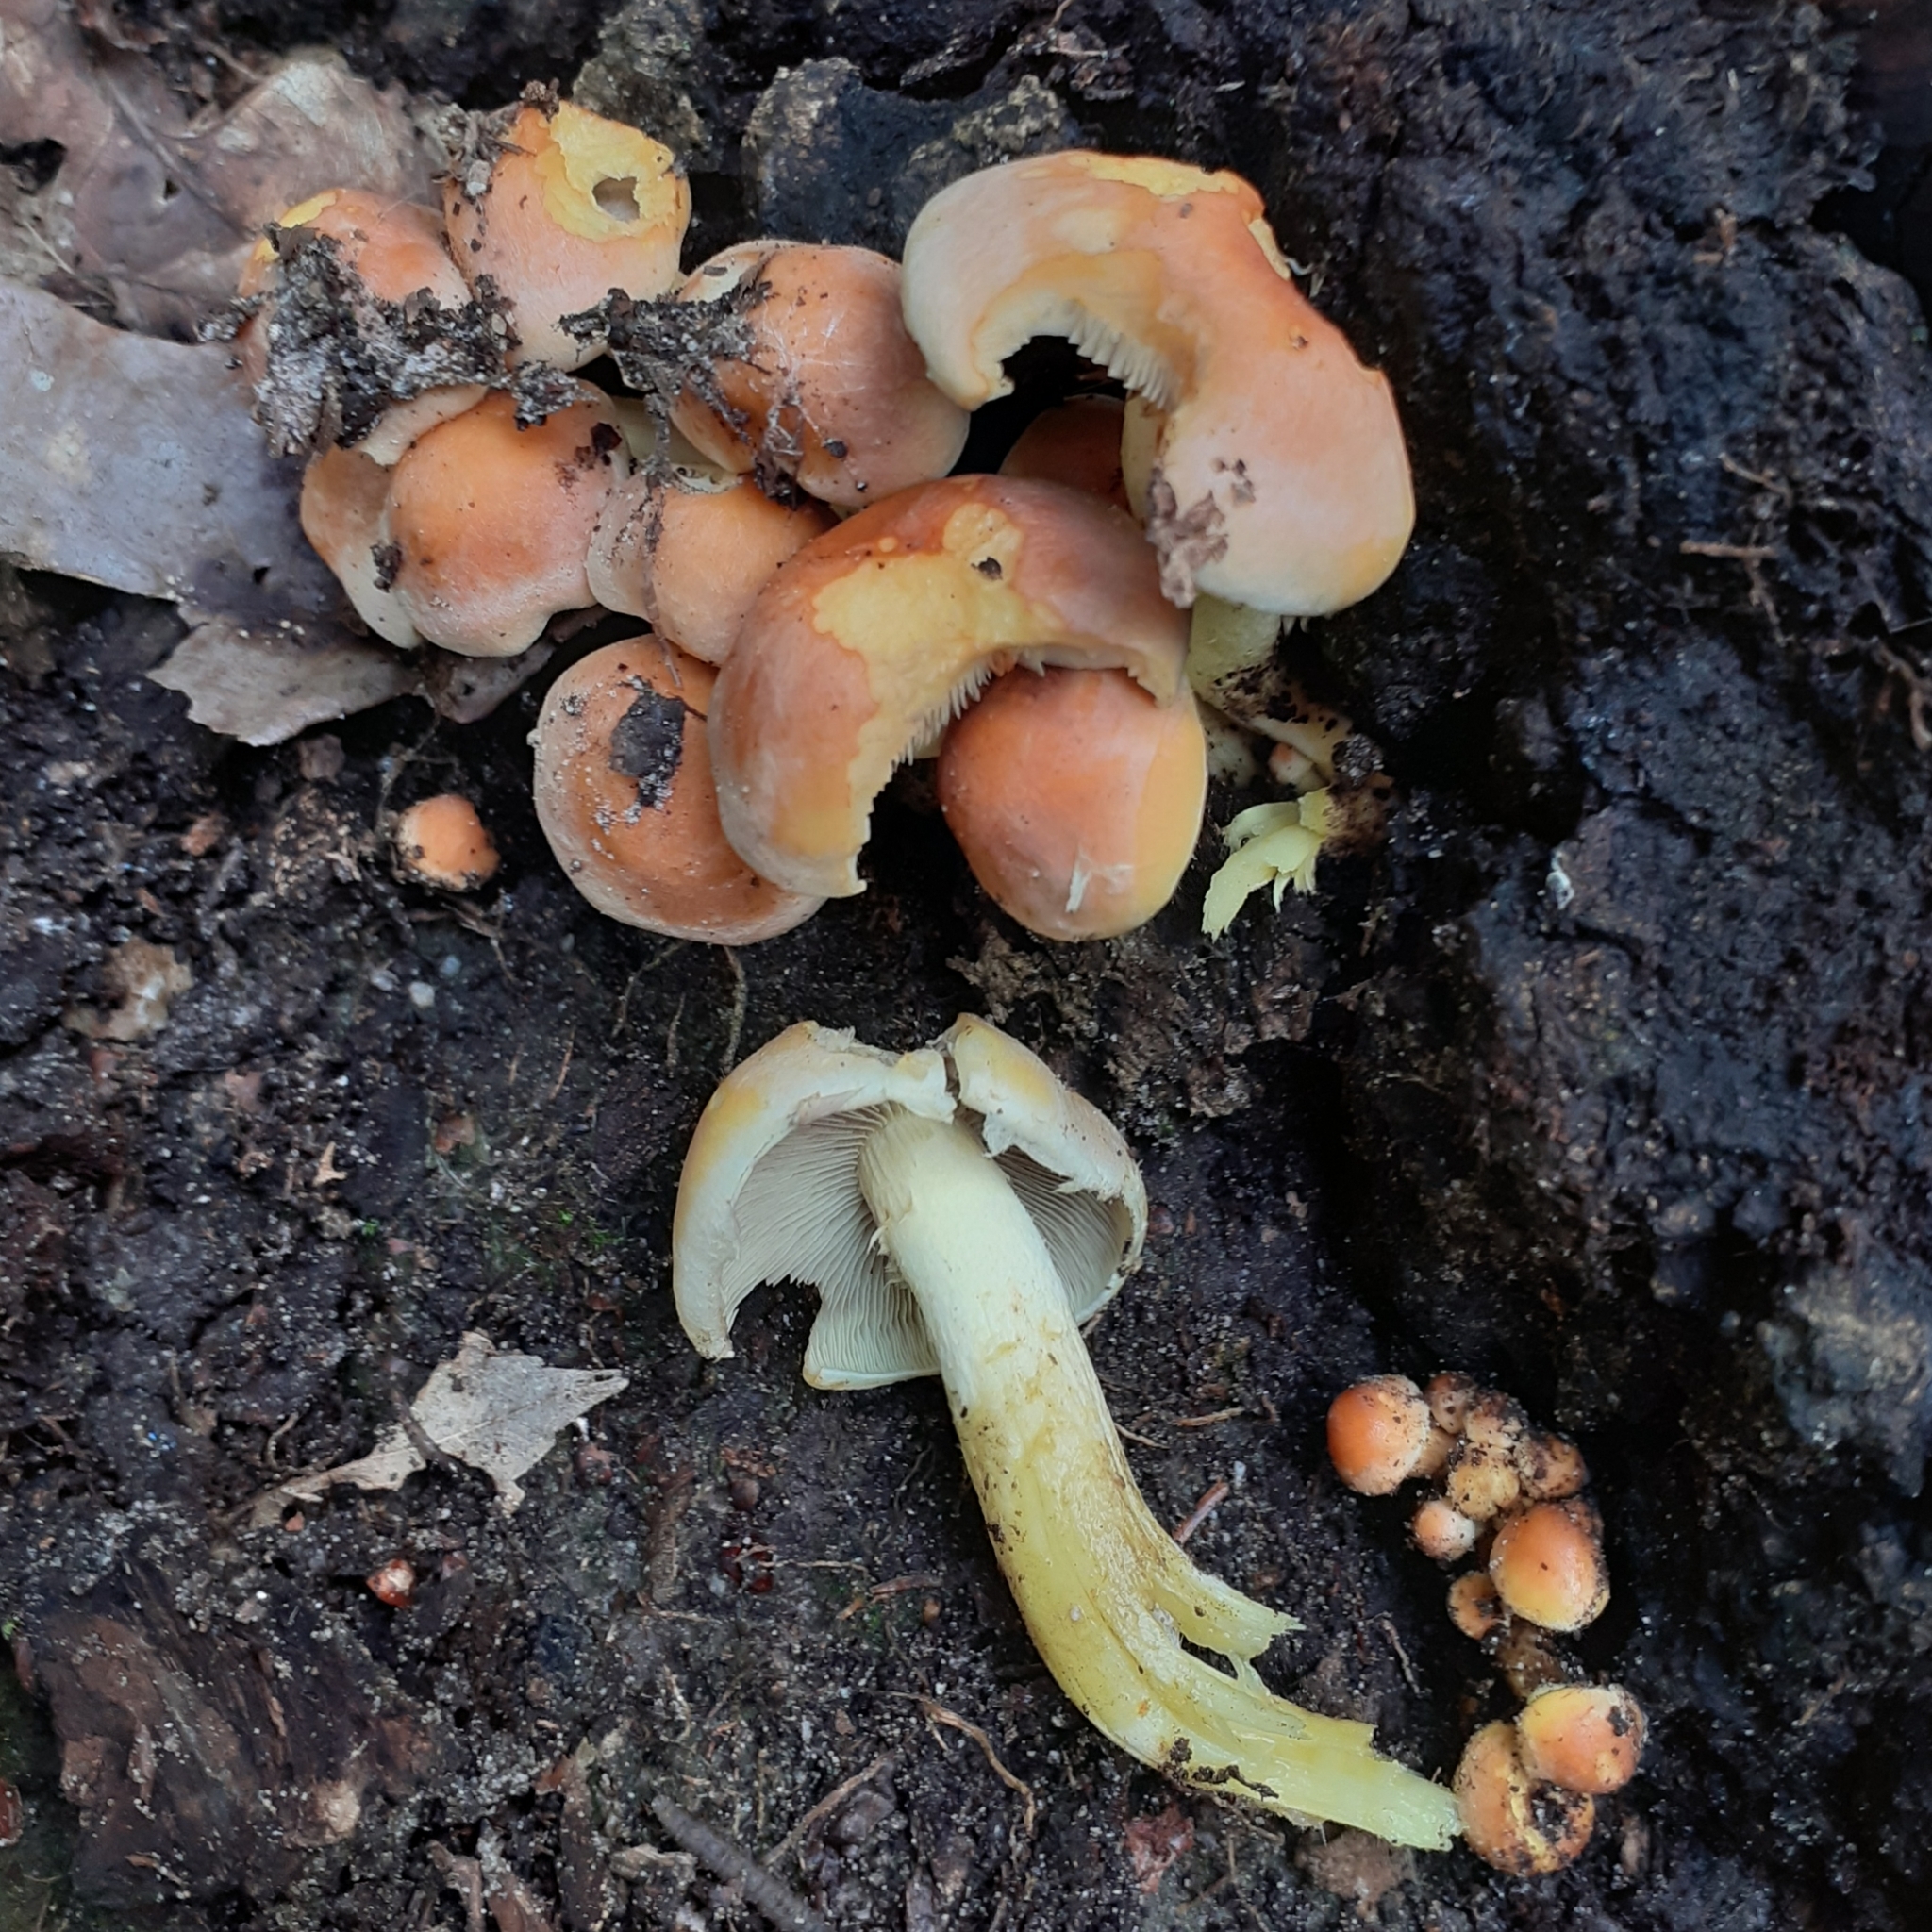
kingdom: Fungi
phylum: Basidiomycota
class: Agaricomycetes
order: Agaricales
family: Strophariaceae
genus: Hypholoma
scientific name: Hypholoma fasciculare
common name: Sulphur tuft
